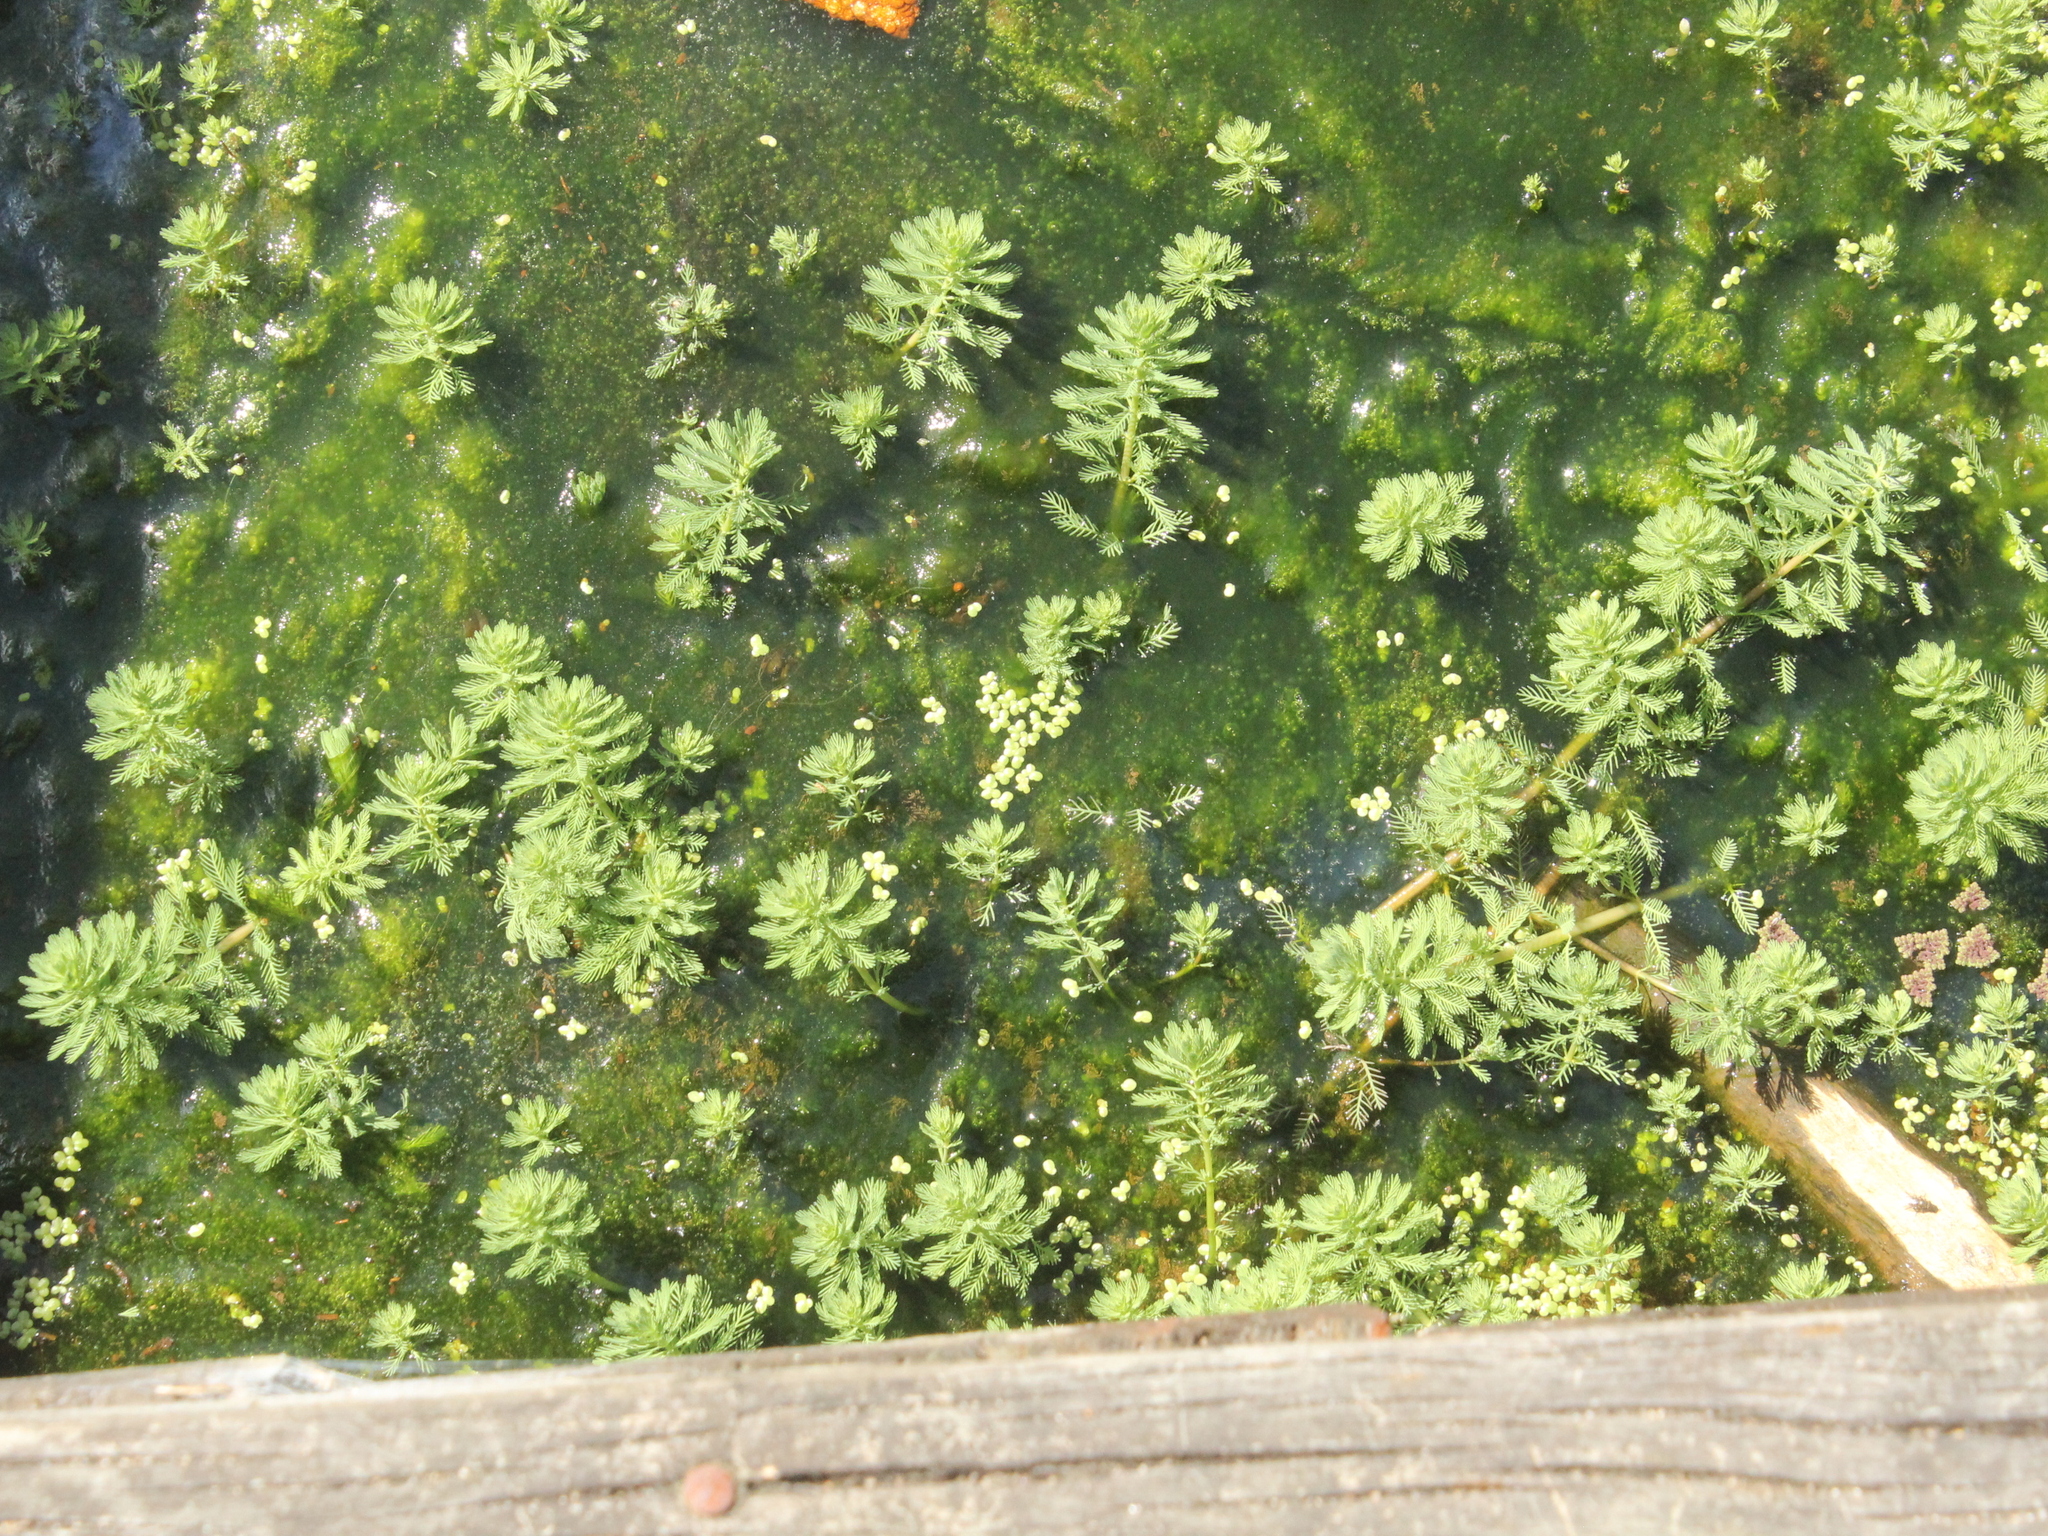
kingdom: Plantae
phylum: Tracheophyta
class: Magnoliopsida
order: Saxifragales
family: Haloragaceae
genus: Myriophyllum
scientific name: Myriophyllum aquaticum
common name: Parrot's feather
